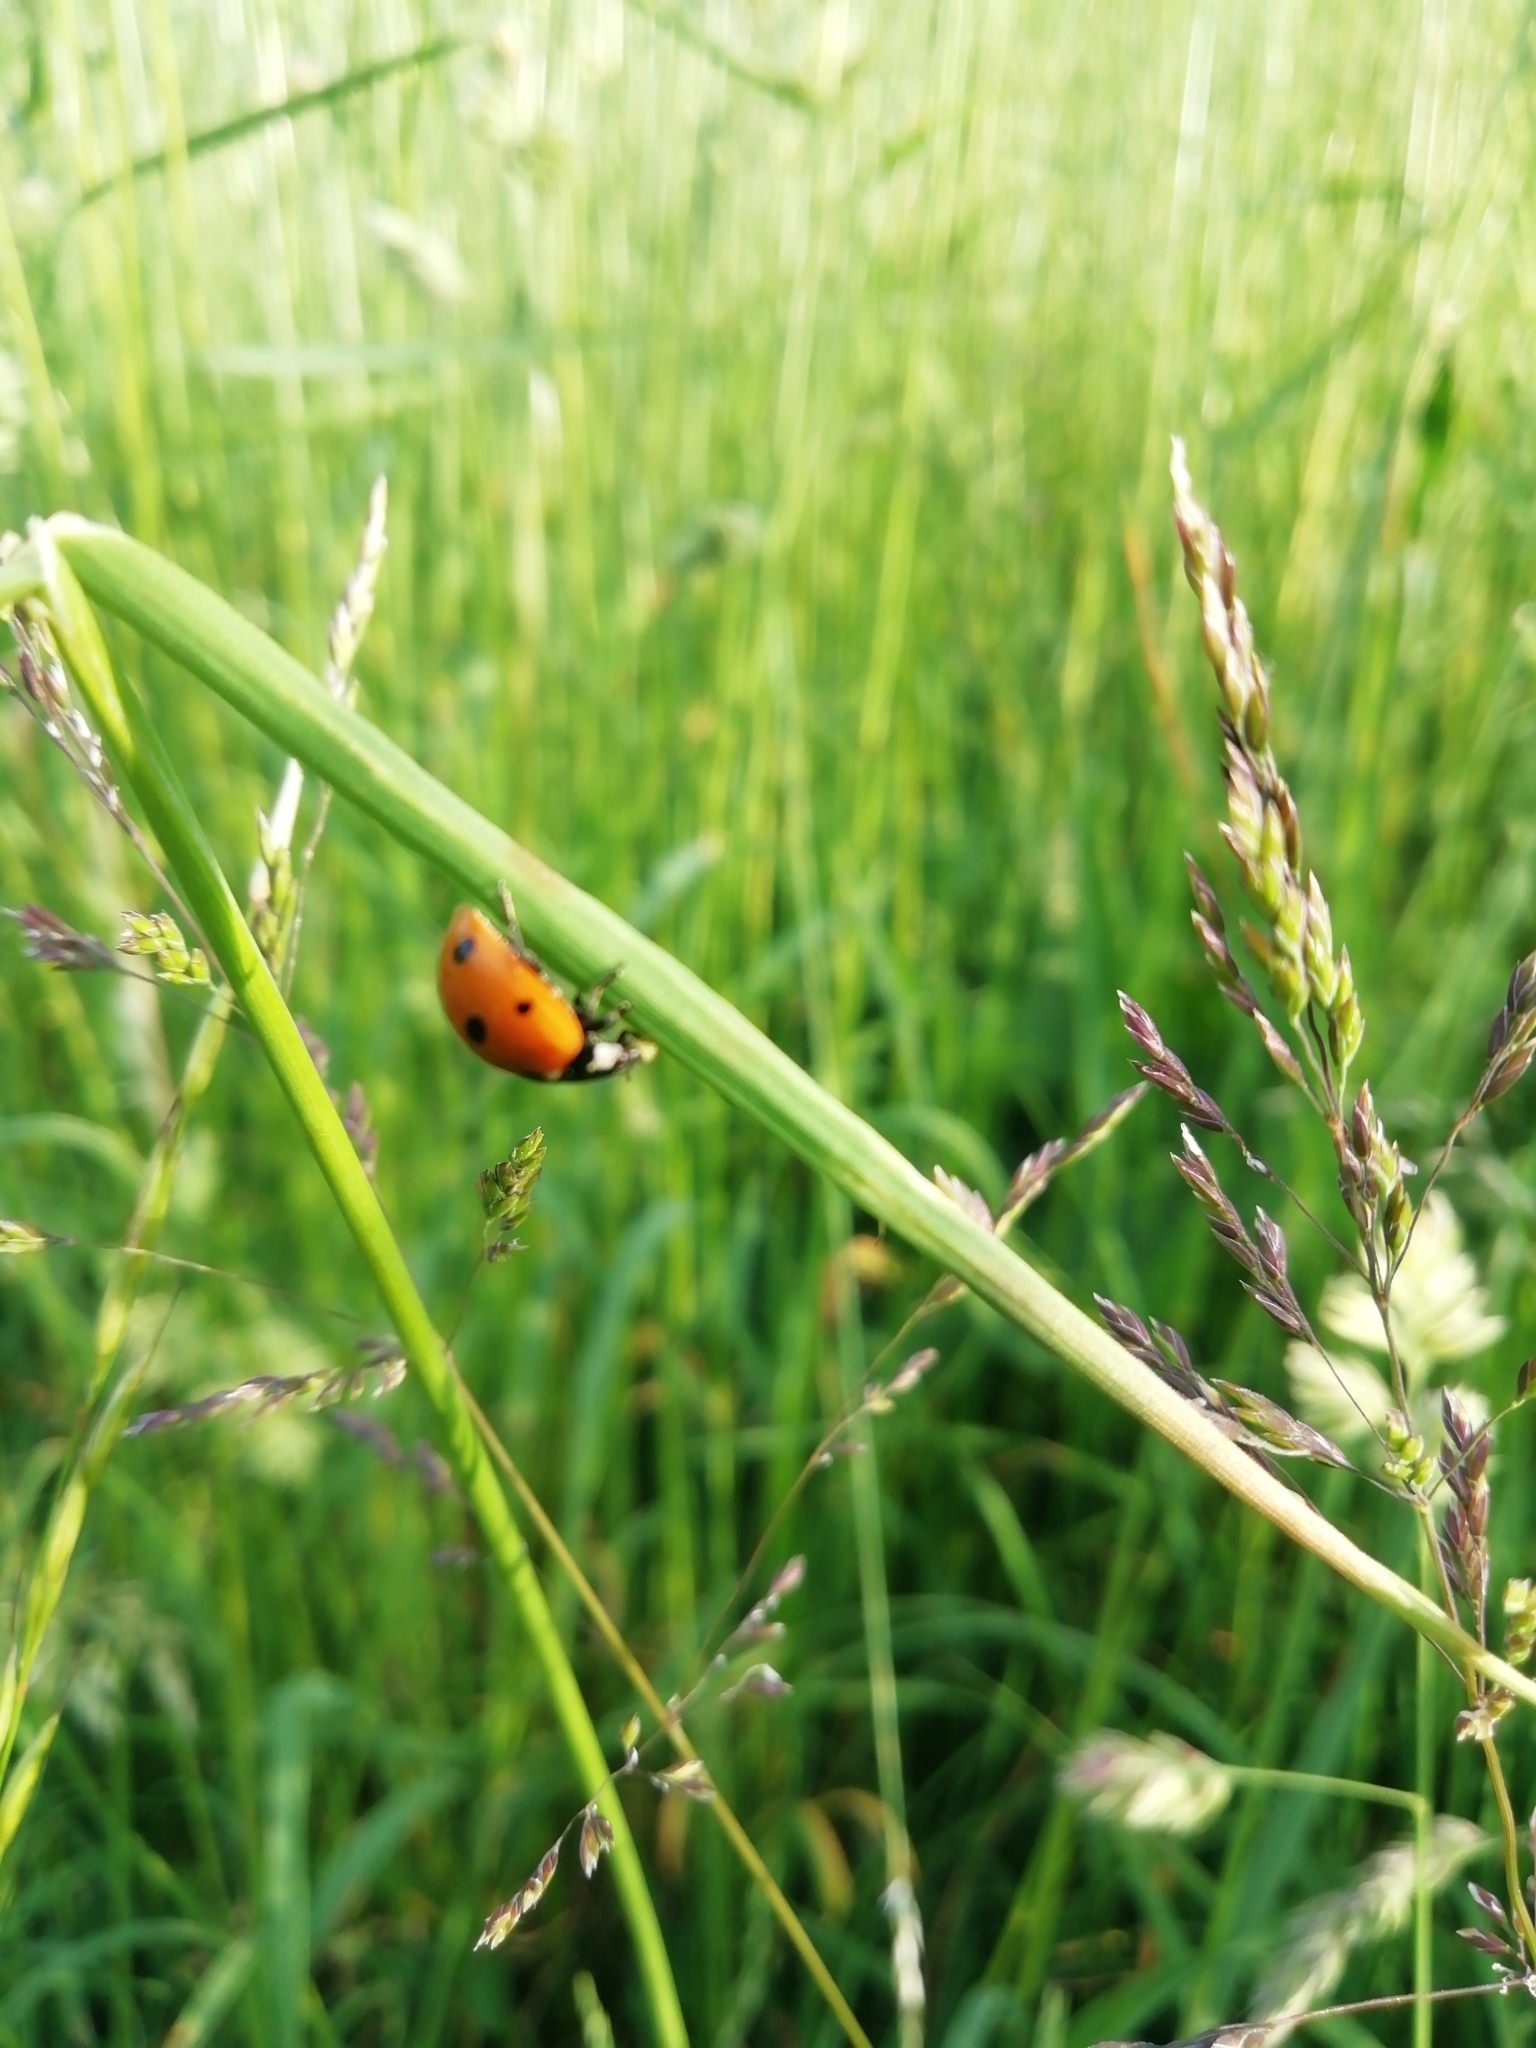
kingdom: Animalia
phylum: Arthropoda
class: Insecta
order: Coleoptera
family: Coccinellidae
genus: Coccinella
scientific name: Coccinella septempunctata
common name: Sevenspotted lady beetle
